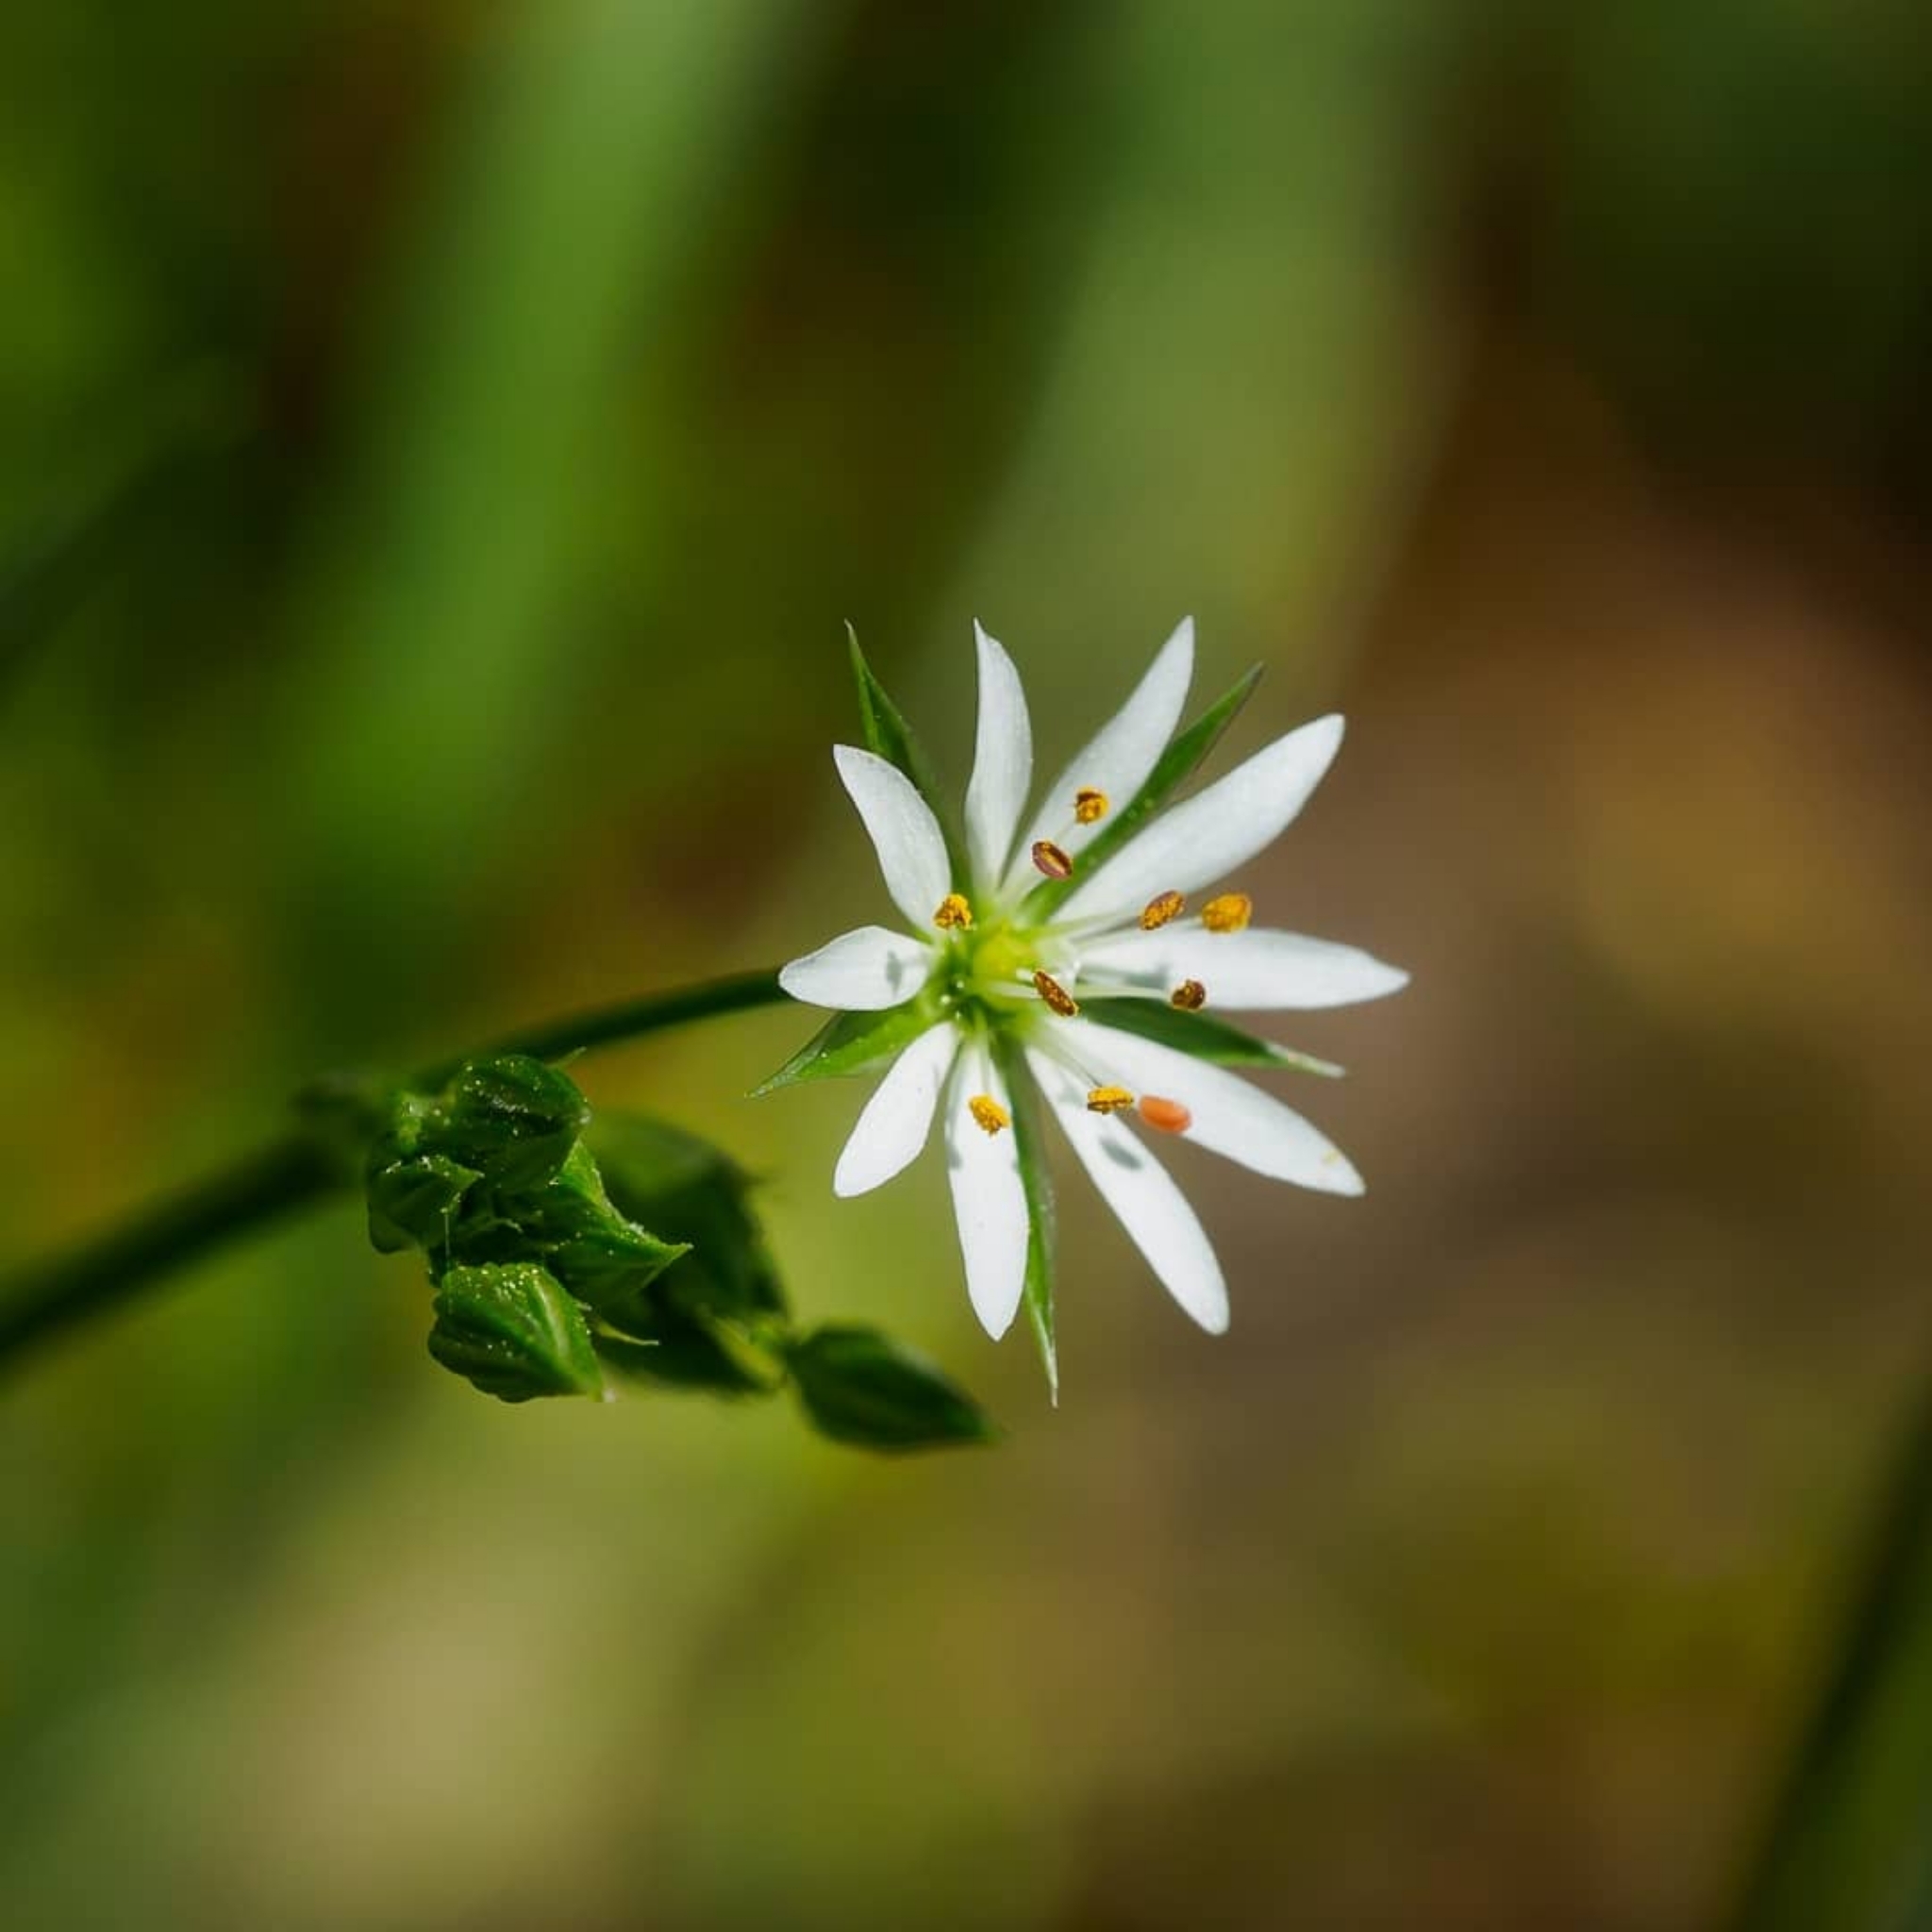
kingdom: Plantae
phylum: Tracheophyta
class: Magnoliopsida
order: Caryophyllales
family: Caryophyllaceae
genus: Stellaria
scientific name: Stellaria graminea
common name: Grass-like starwort
